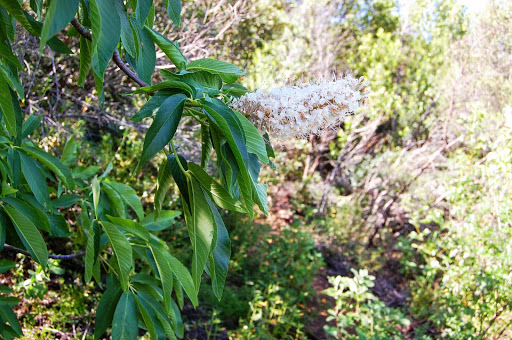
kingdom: Plantae
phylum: Tracheophyta
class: Magnoliopsida
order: Sapindales
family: Sapindaceae
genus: Aesculus
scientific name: Aesculus californica
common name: California buckeye
